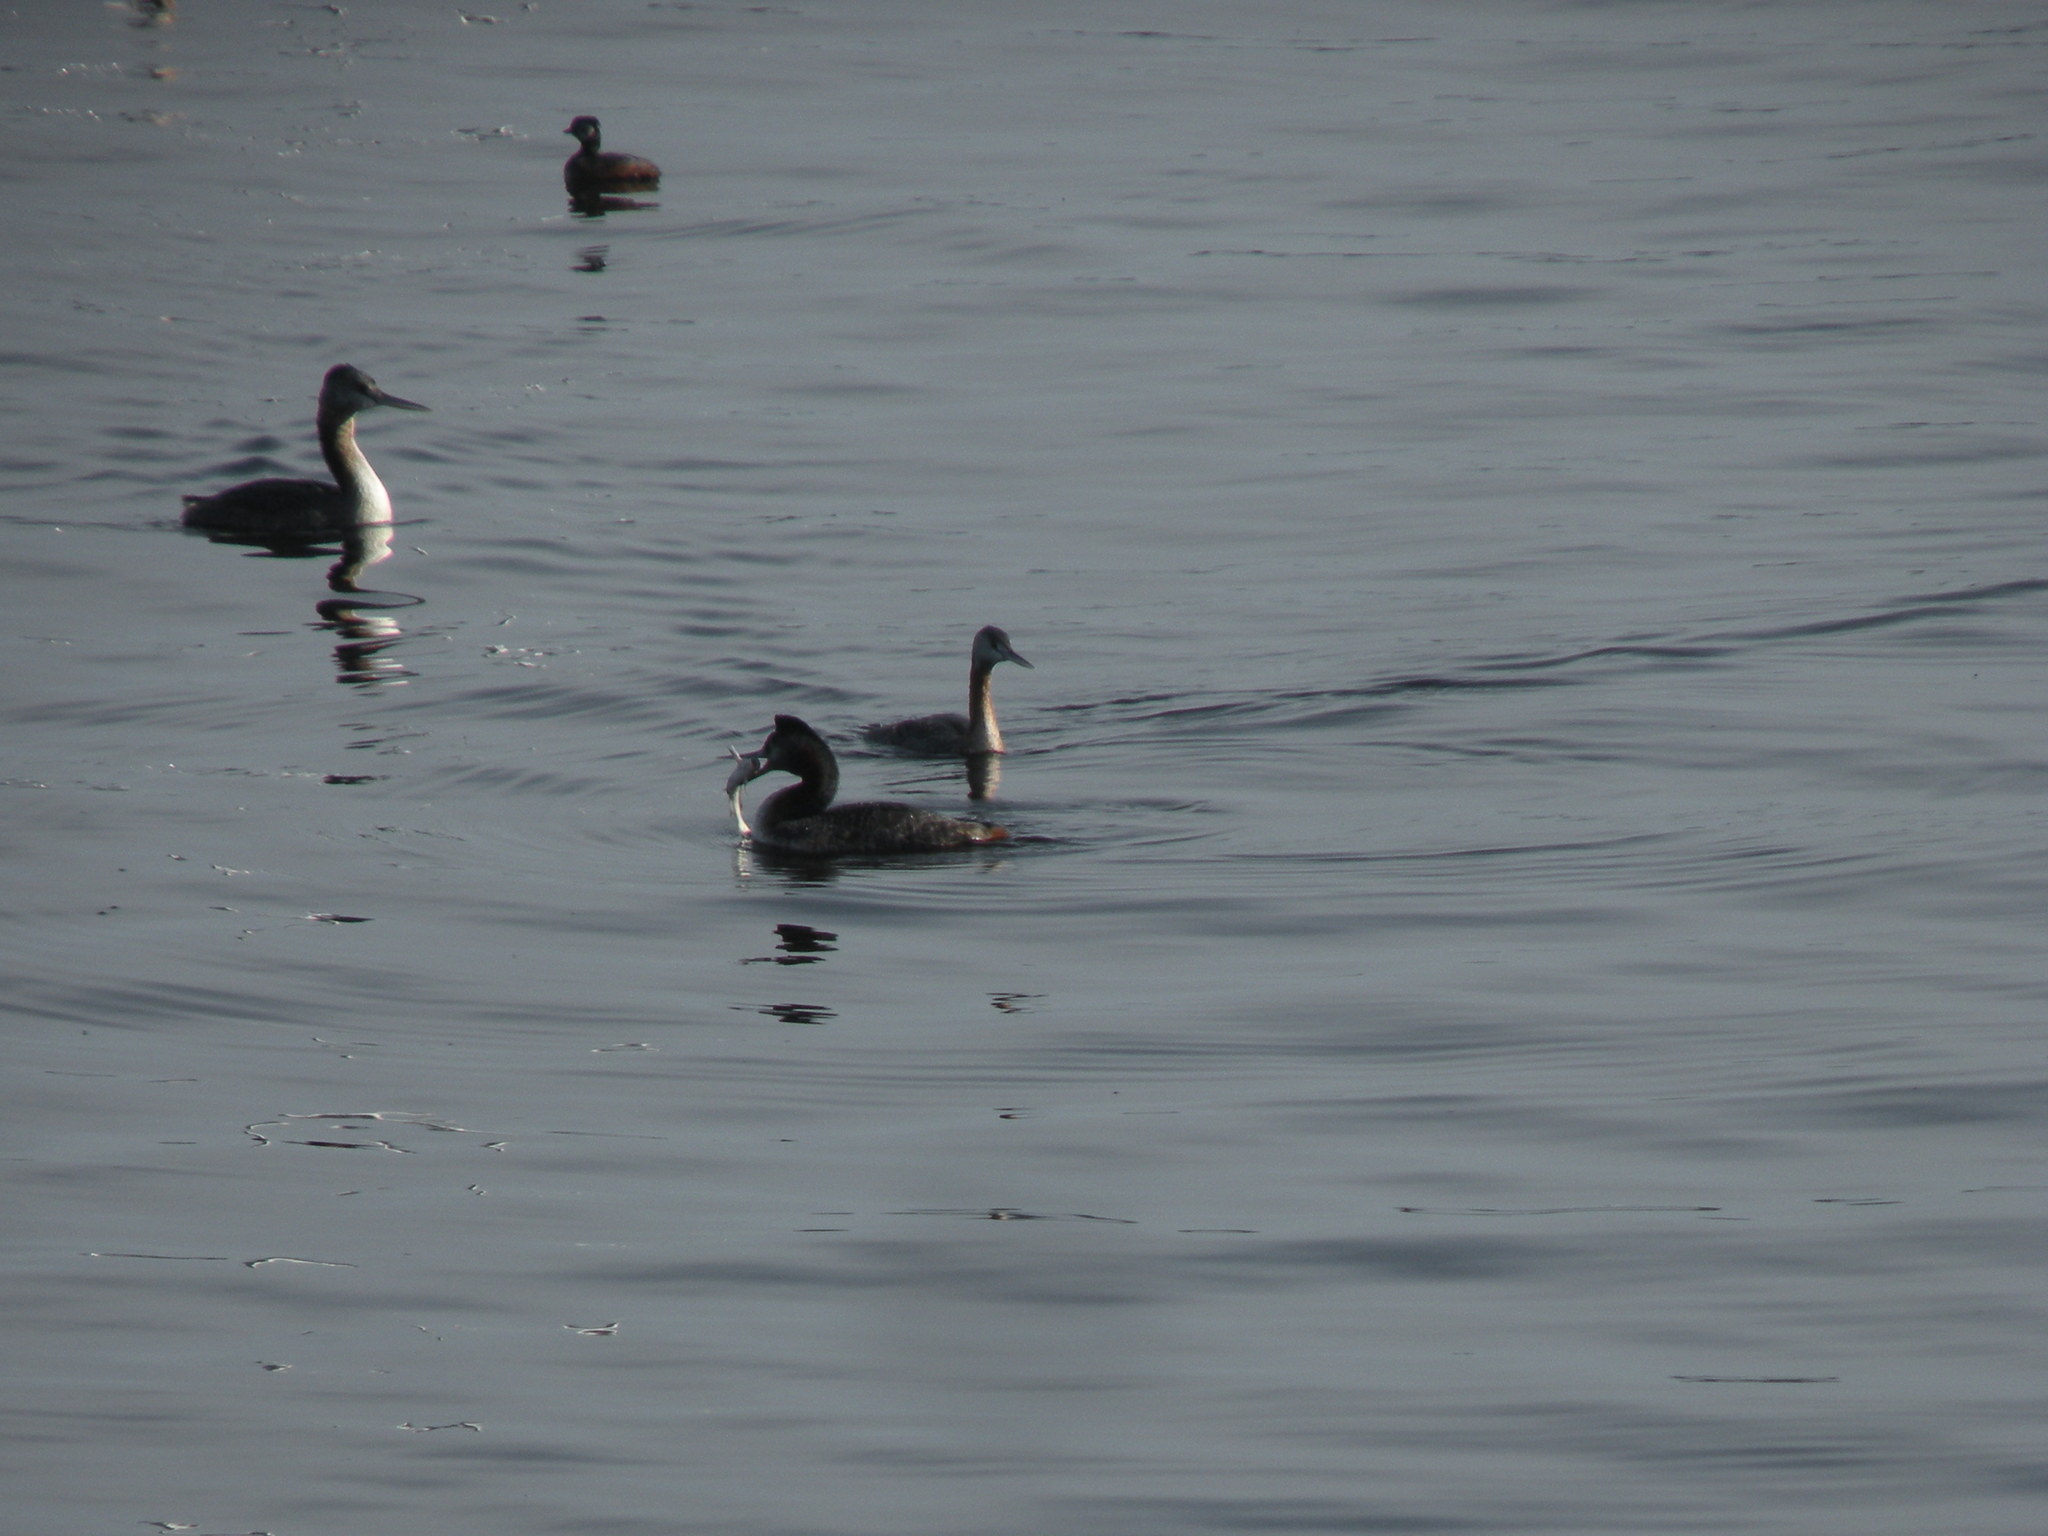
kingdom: Animalia
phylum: Chordata
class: Aves
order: Podicipediformes
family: Podicipedidae
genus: Podiceps
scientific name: Podiceps major
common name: Great grebe
